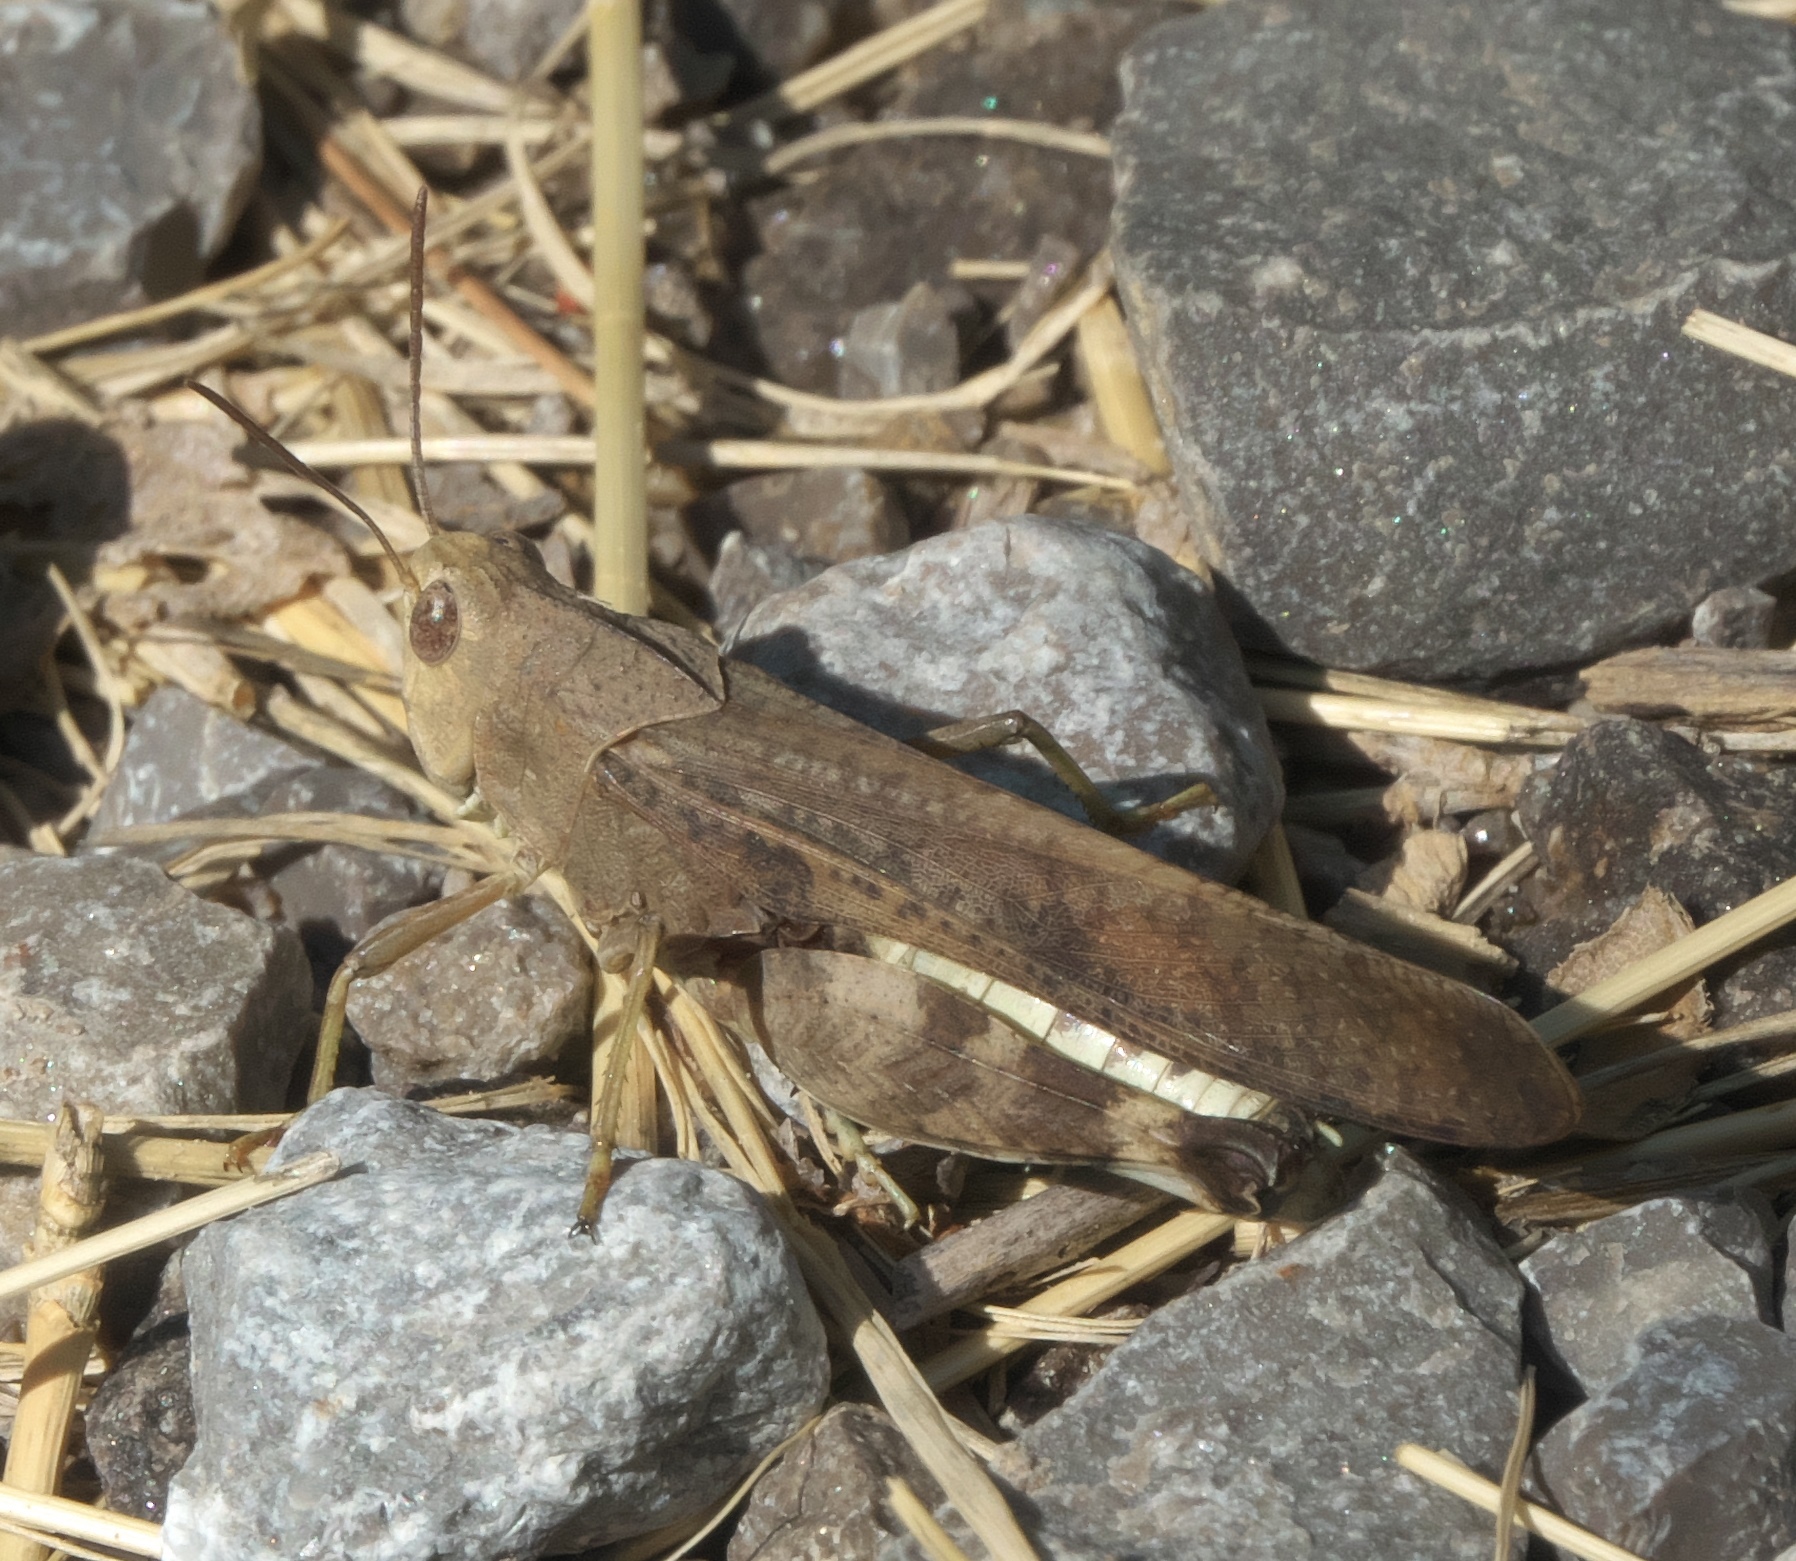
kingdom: Animalia
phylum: Arthropoda
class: Insecta
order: Orthoptera
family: Acrididae
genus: Arphia
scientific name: Arphia simplex
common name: Plains yellow-winged grasshopper
